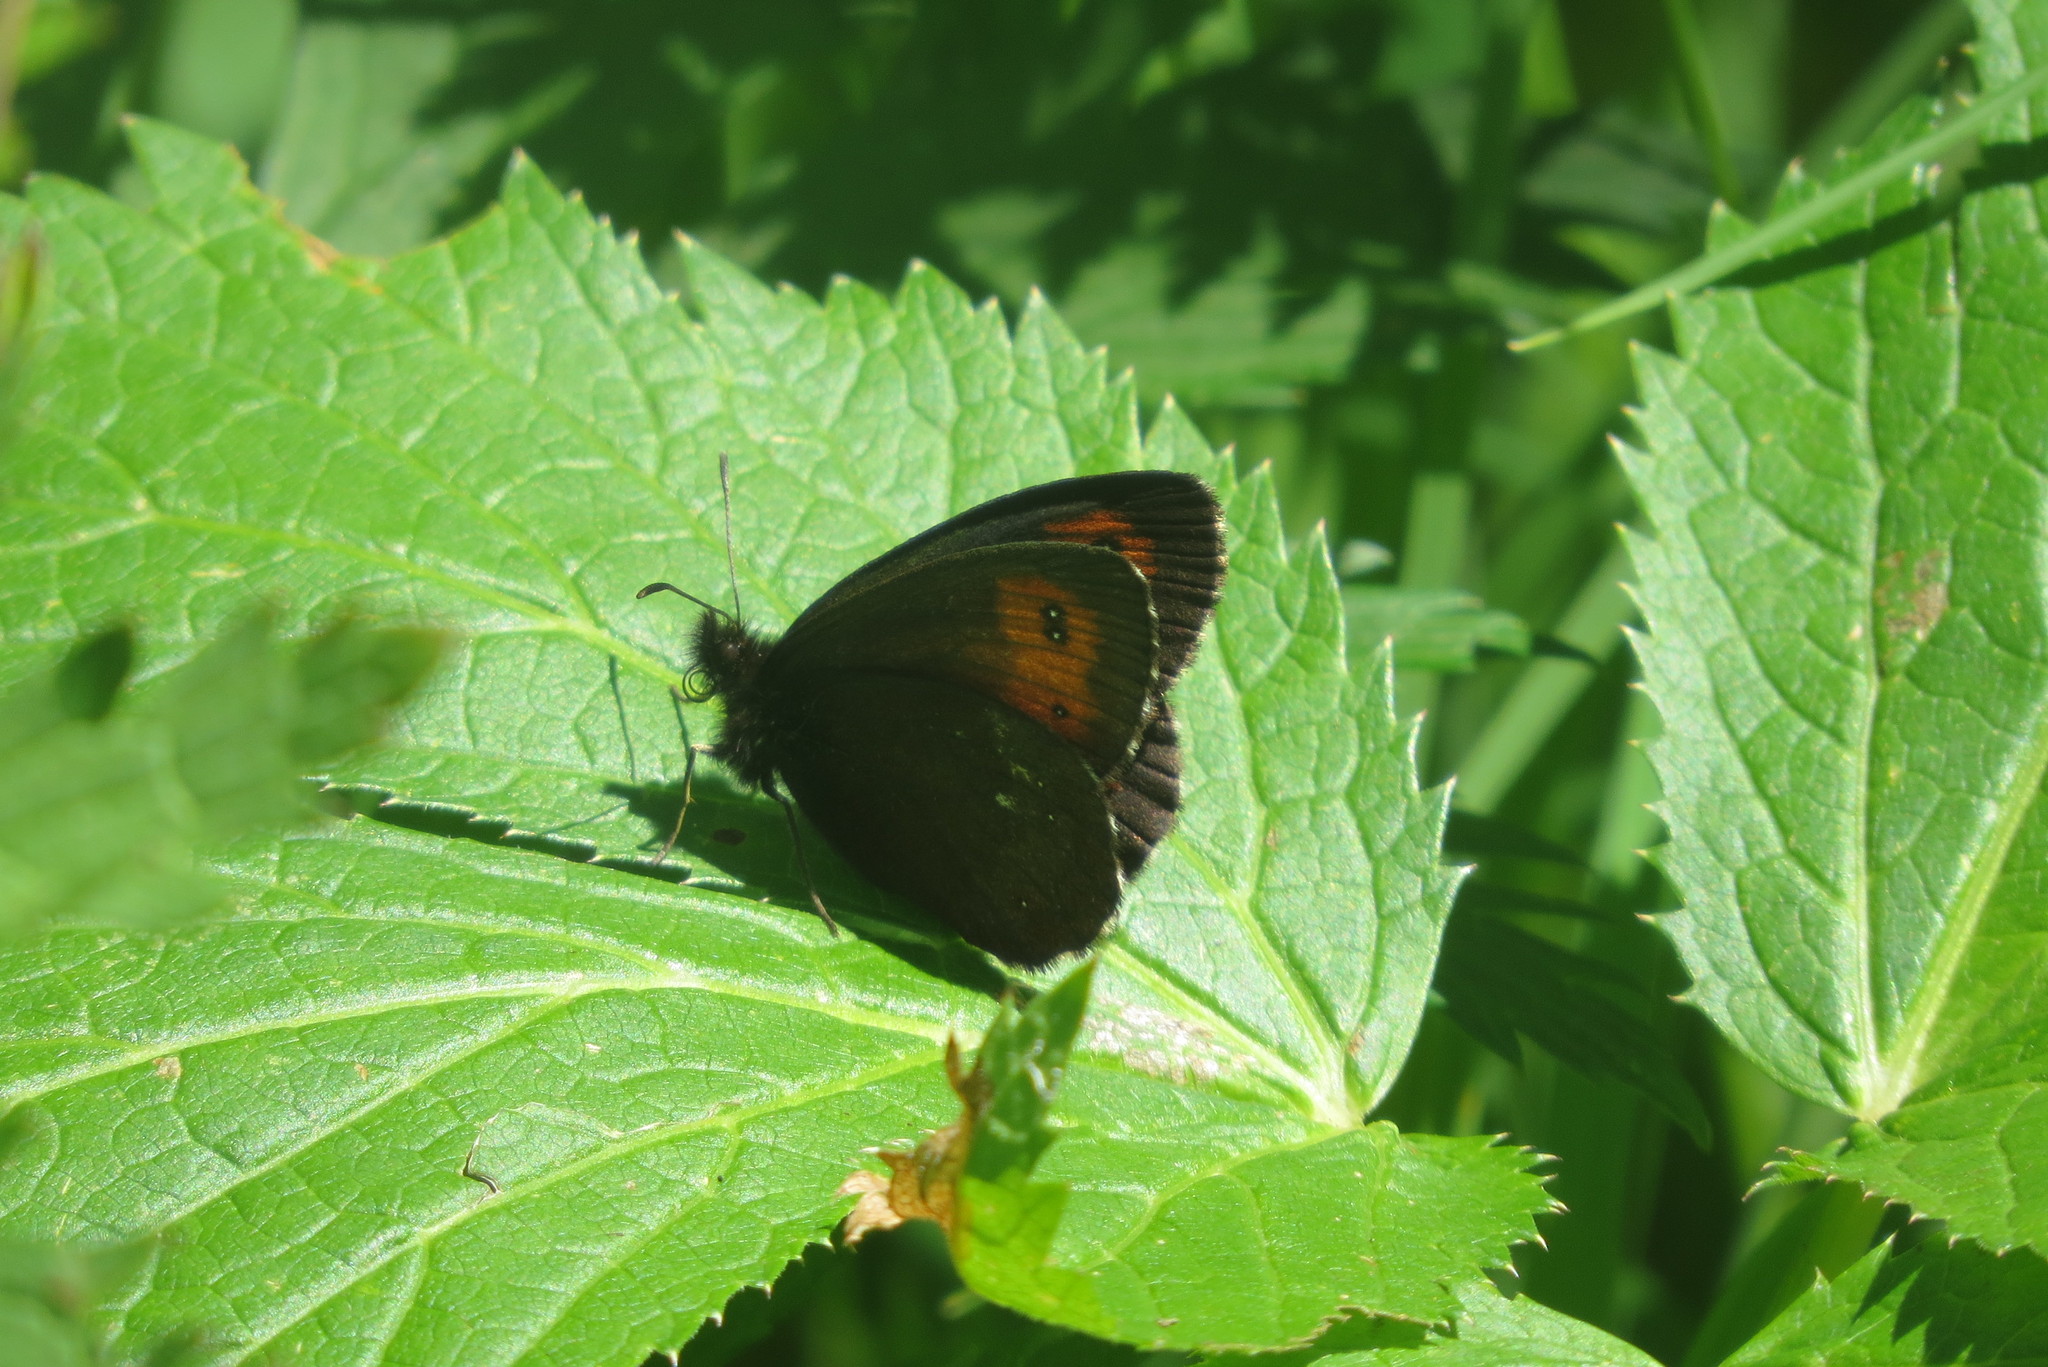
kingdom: Animalia
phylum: Arthropoda
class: Insecta
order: Lepidoptera
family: Nymphalidae
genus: Erebia
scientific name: Erebia euryale
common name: Large ringlet
